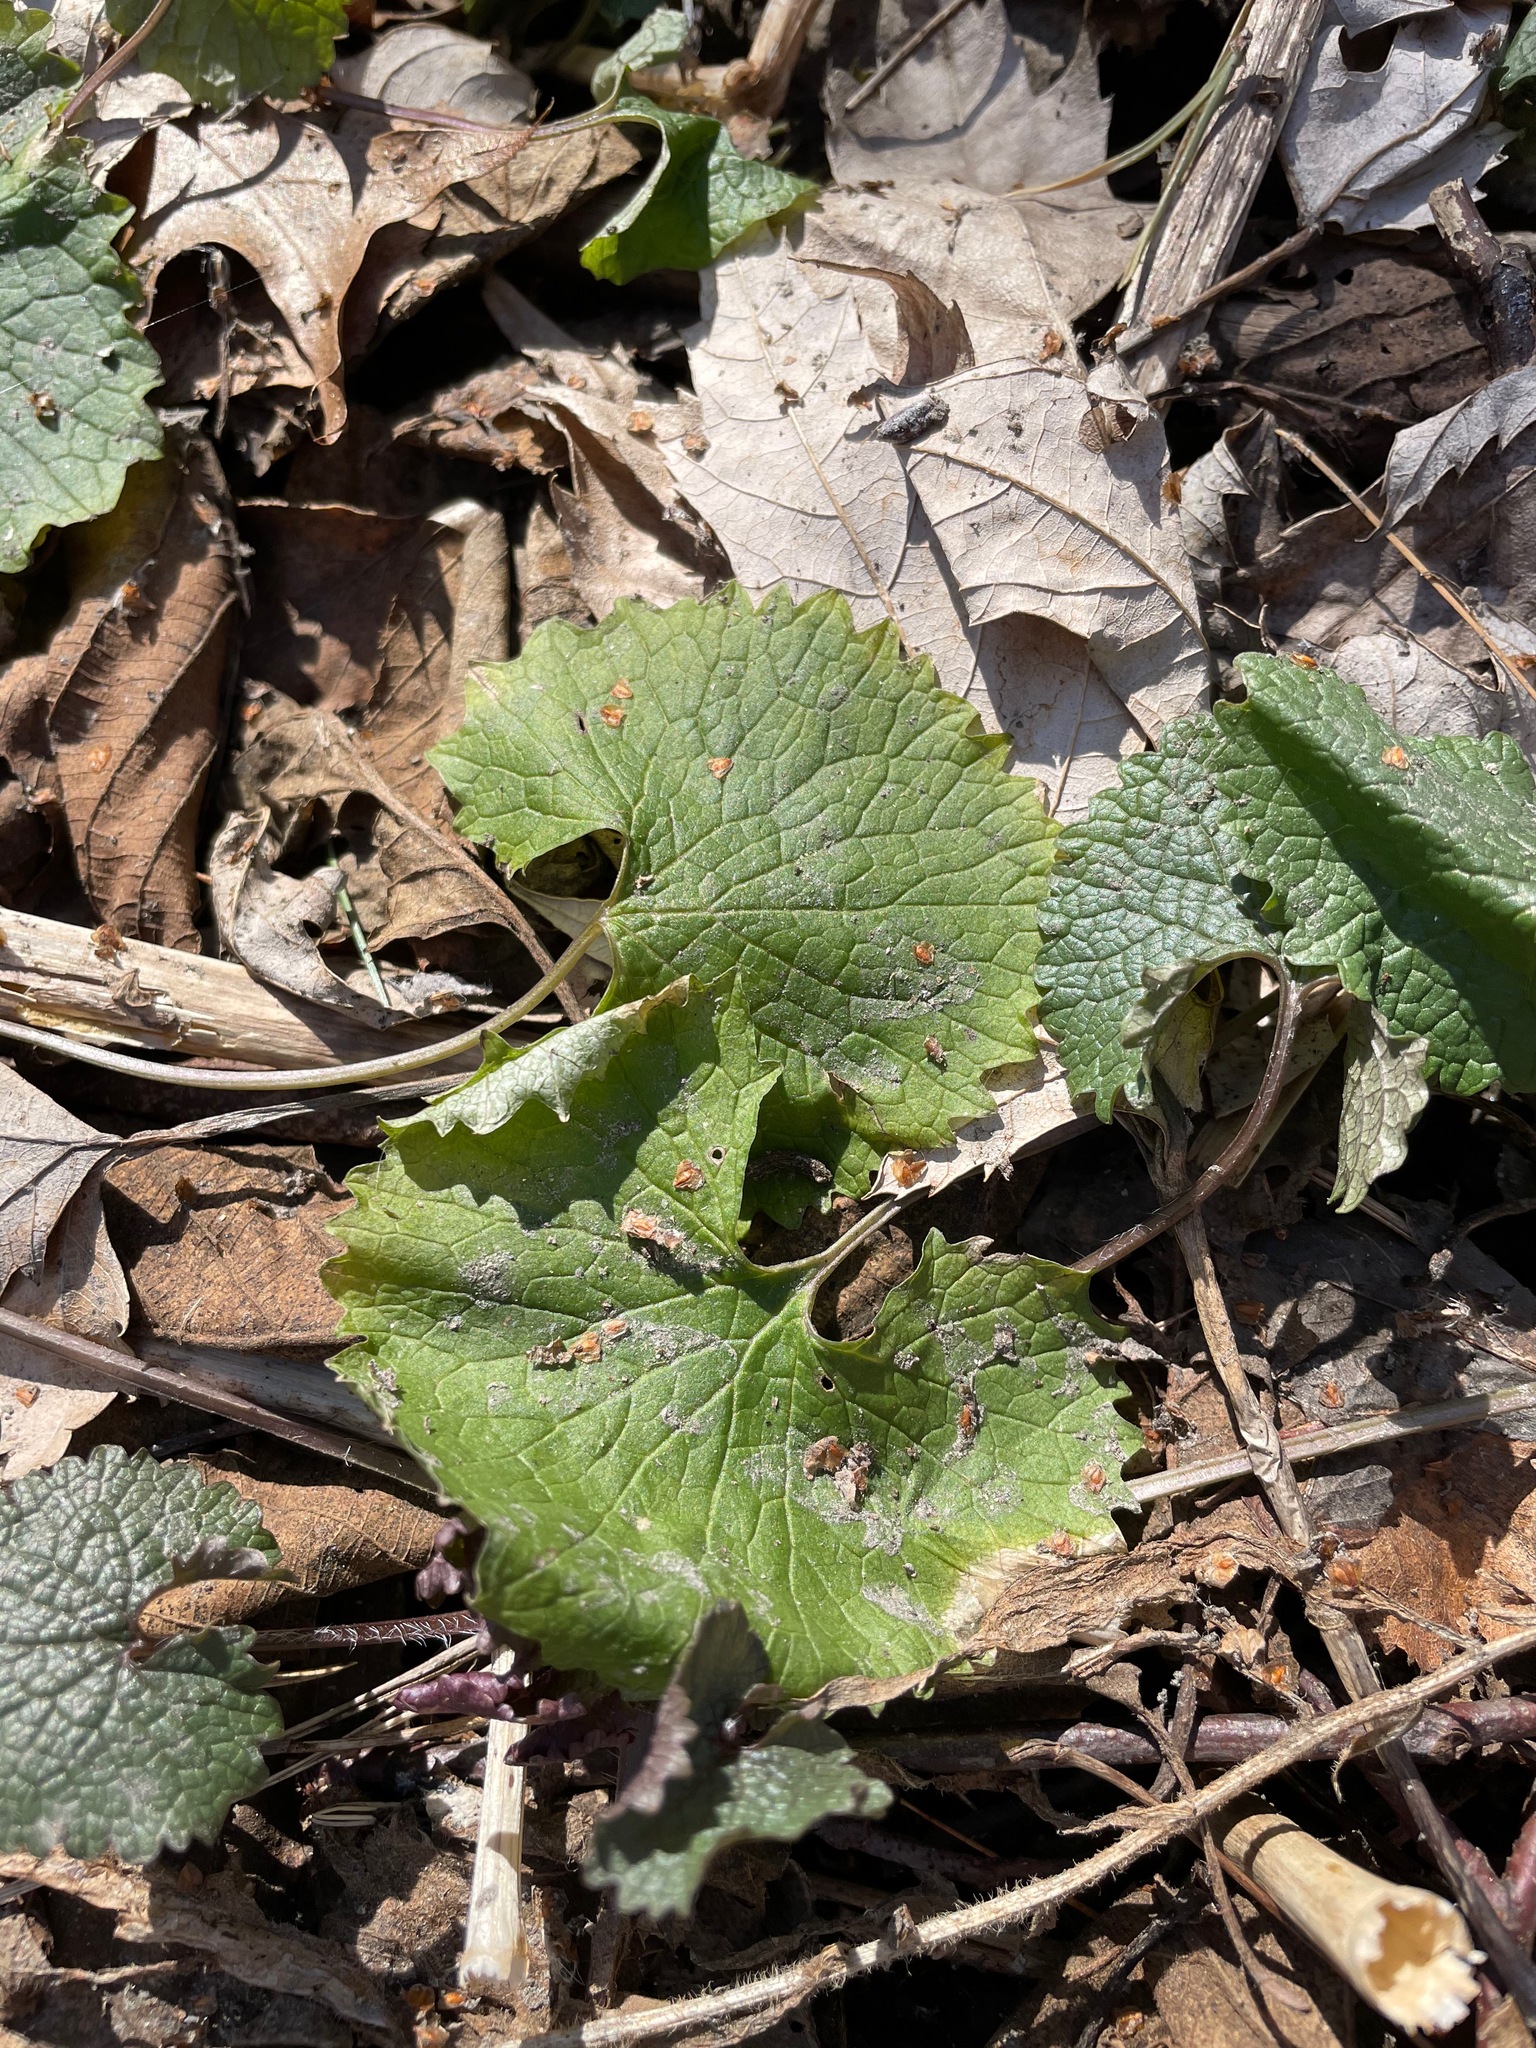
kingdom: Plantae
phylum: Tracheophyta
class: Magnoliopsida
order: Brassicales
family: Brassicaceae
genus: Alliaria
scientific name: Alliaria petiolata
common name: Garlic mustard
